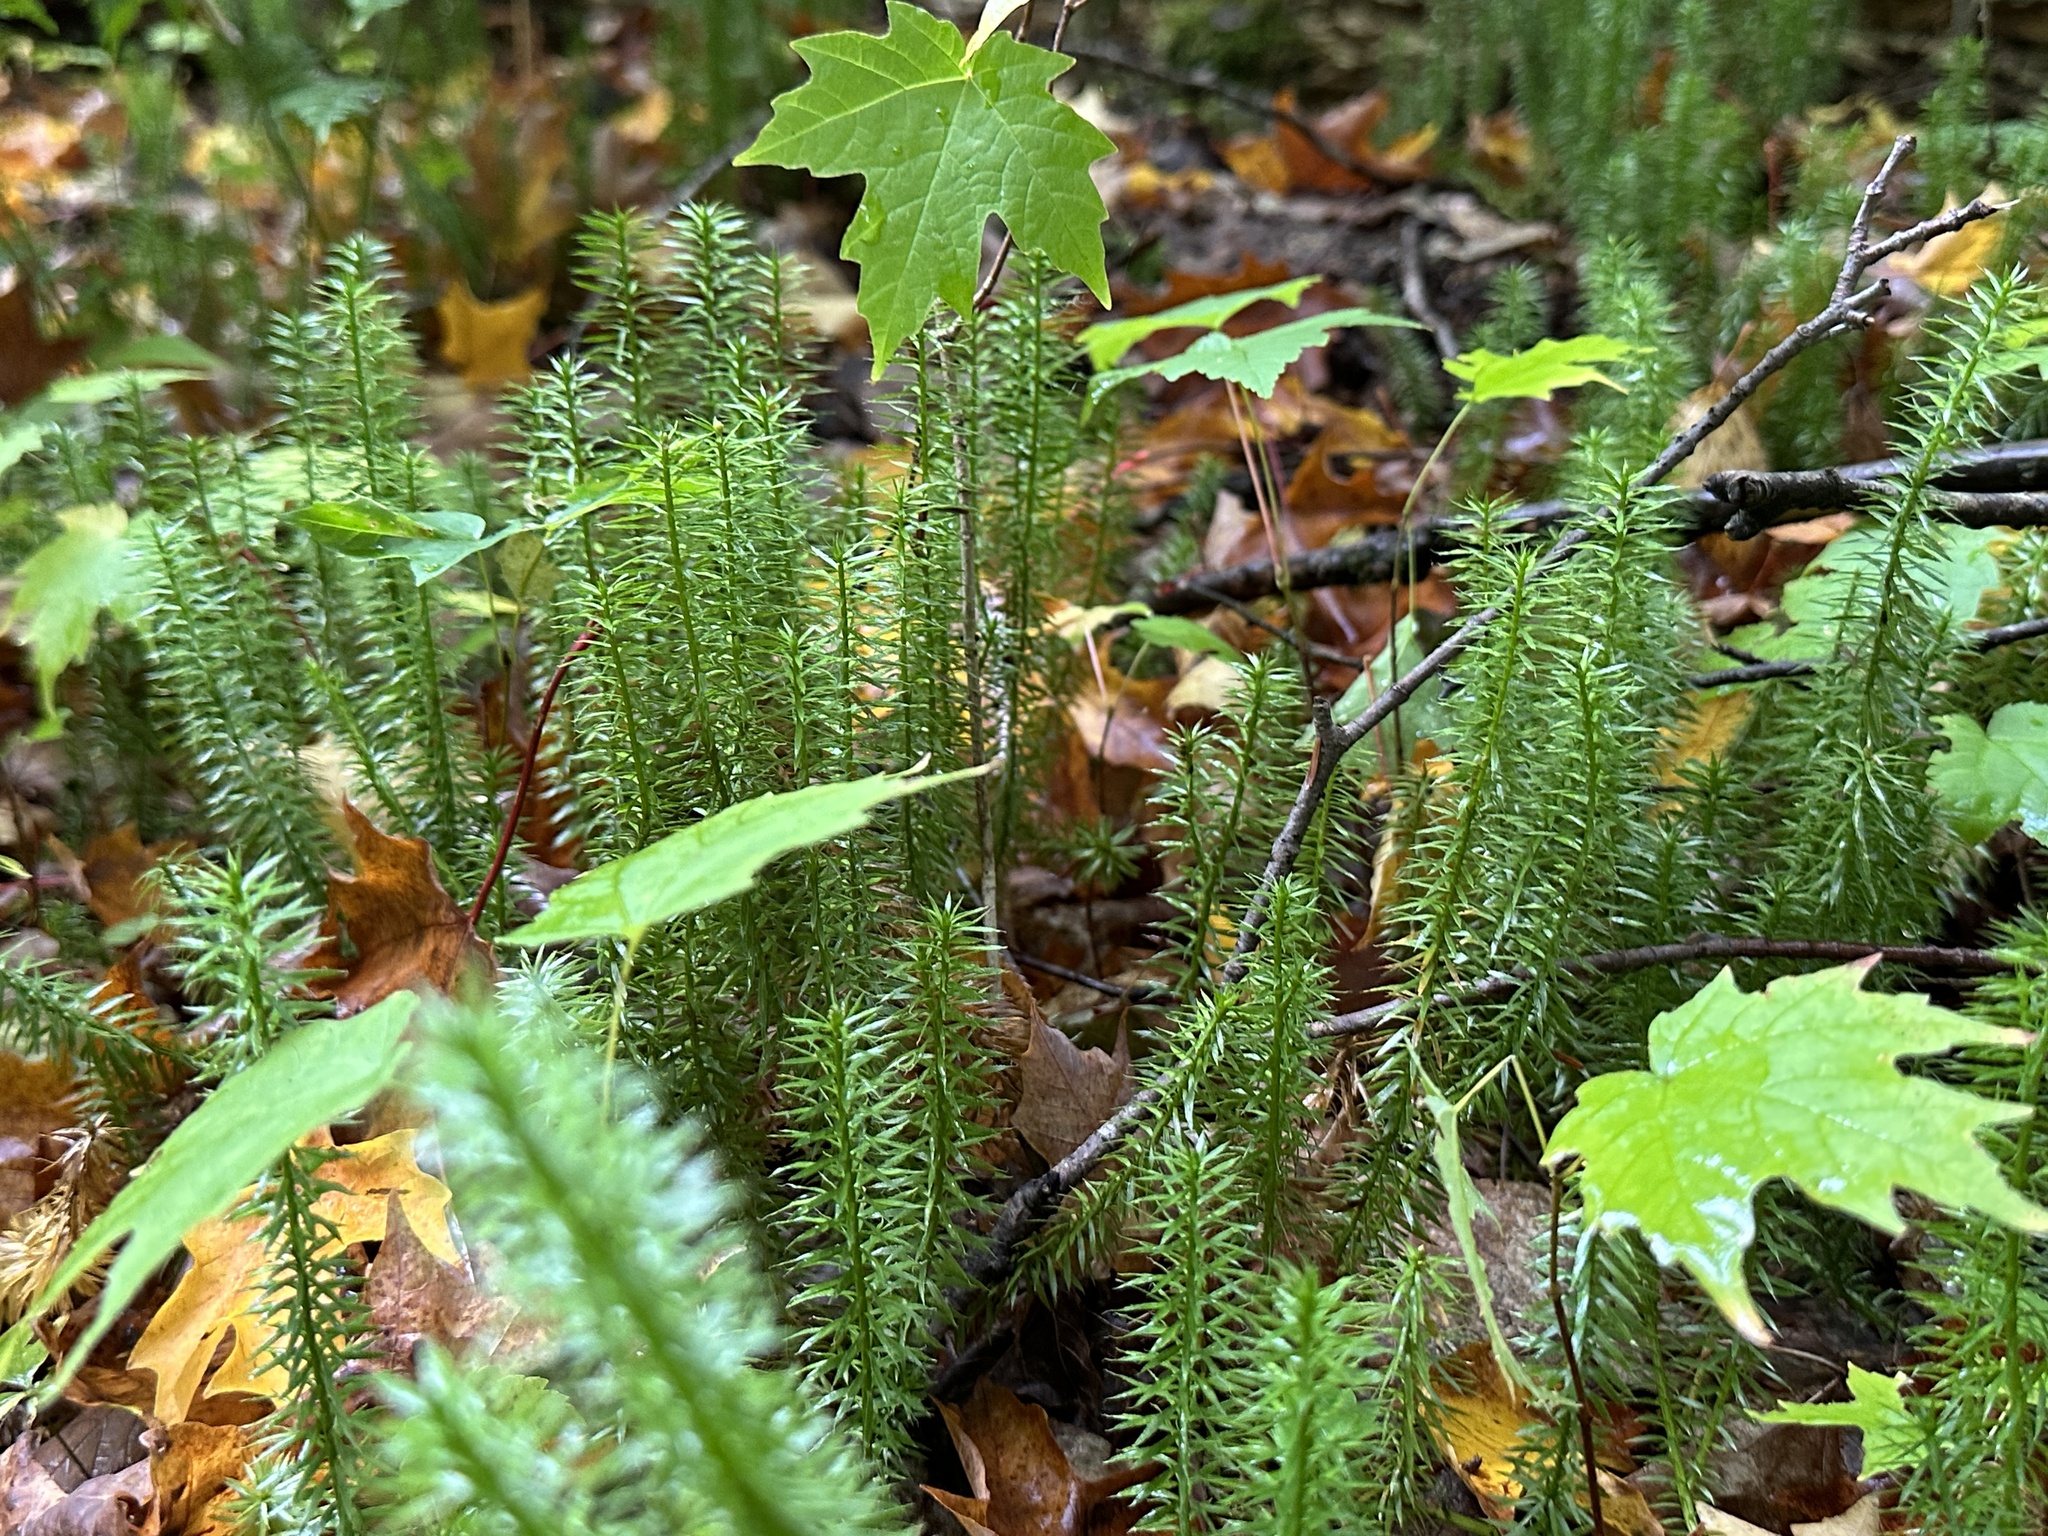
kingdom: Plantae
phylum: Tracheophyta
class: Lycopodiopsida
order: Lycopodiales
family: Lycopodiaceae
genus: Spinulum
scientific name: Spinulum annotinum
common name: Interrupted club-moss
